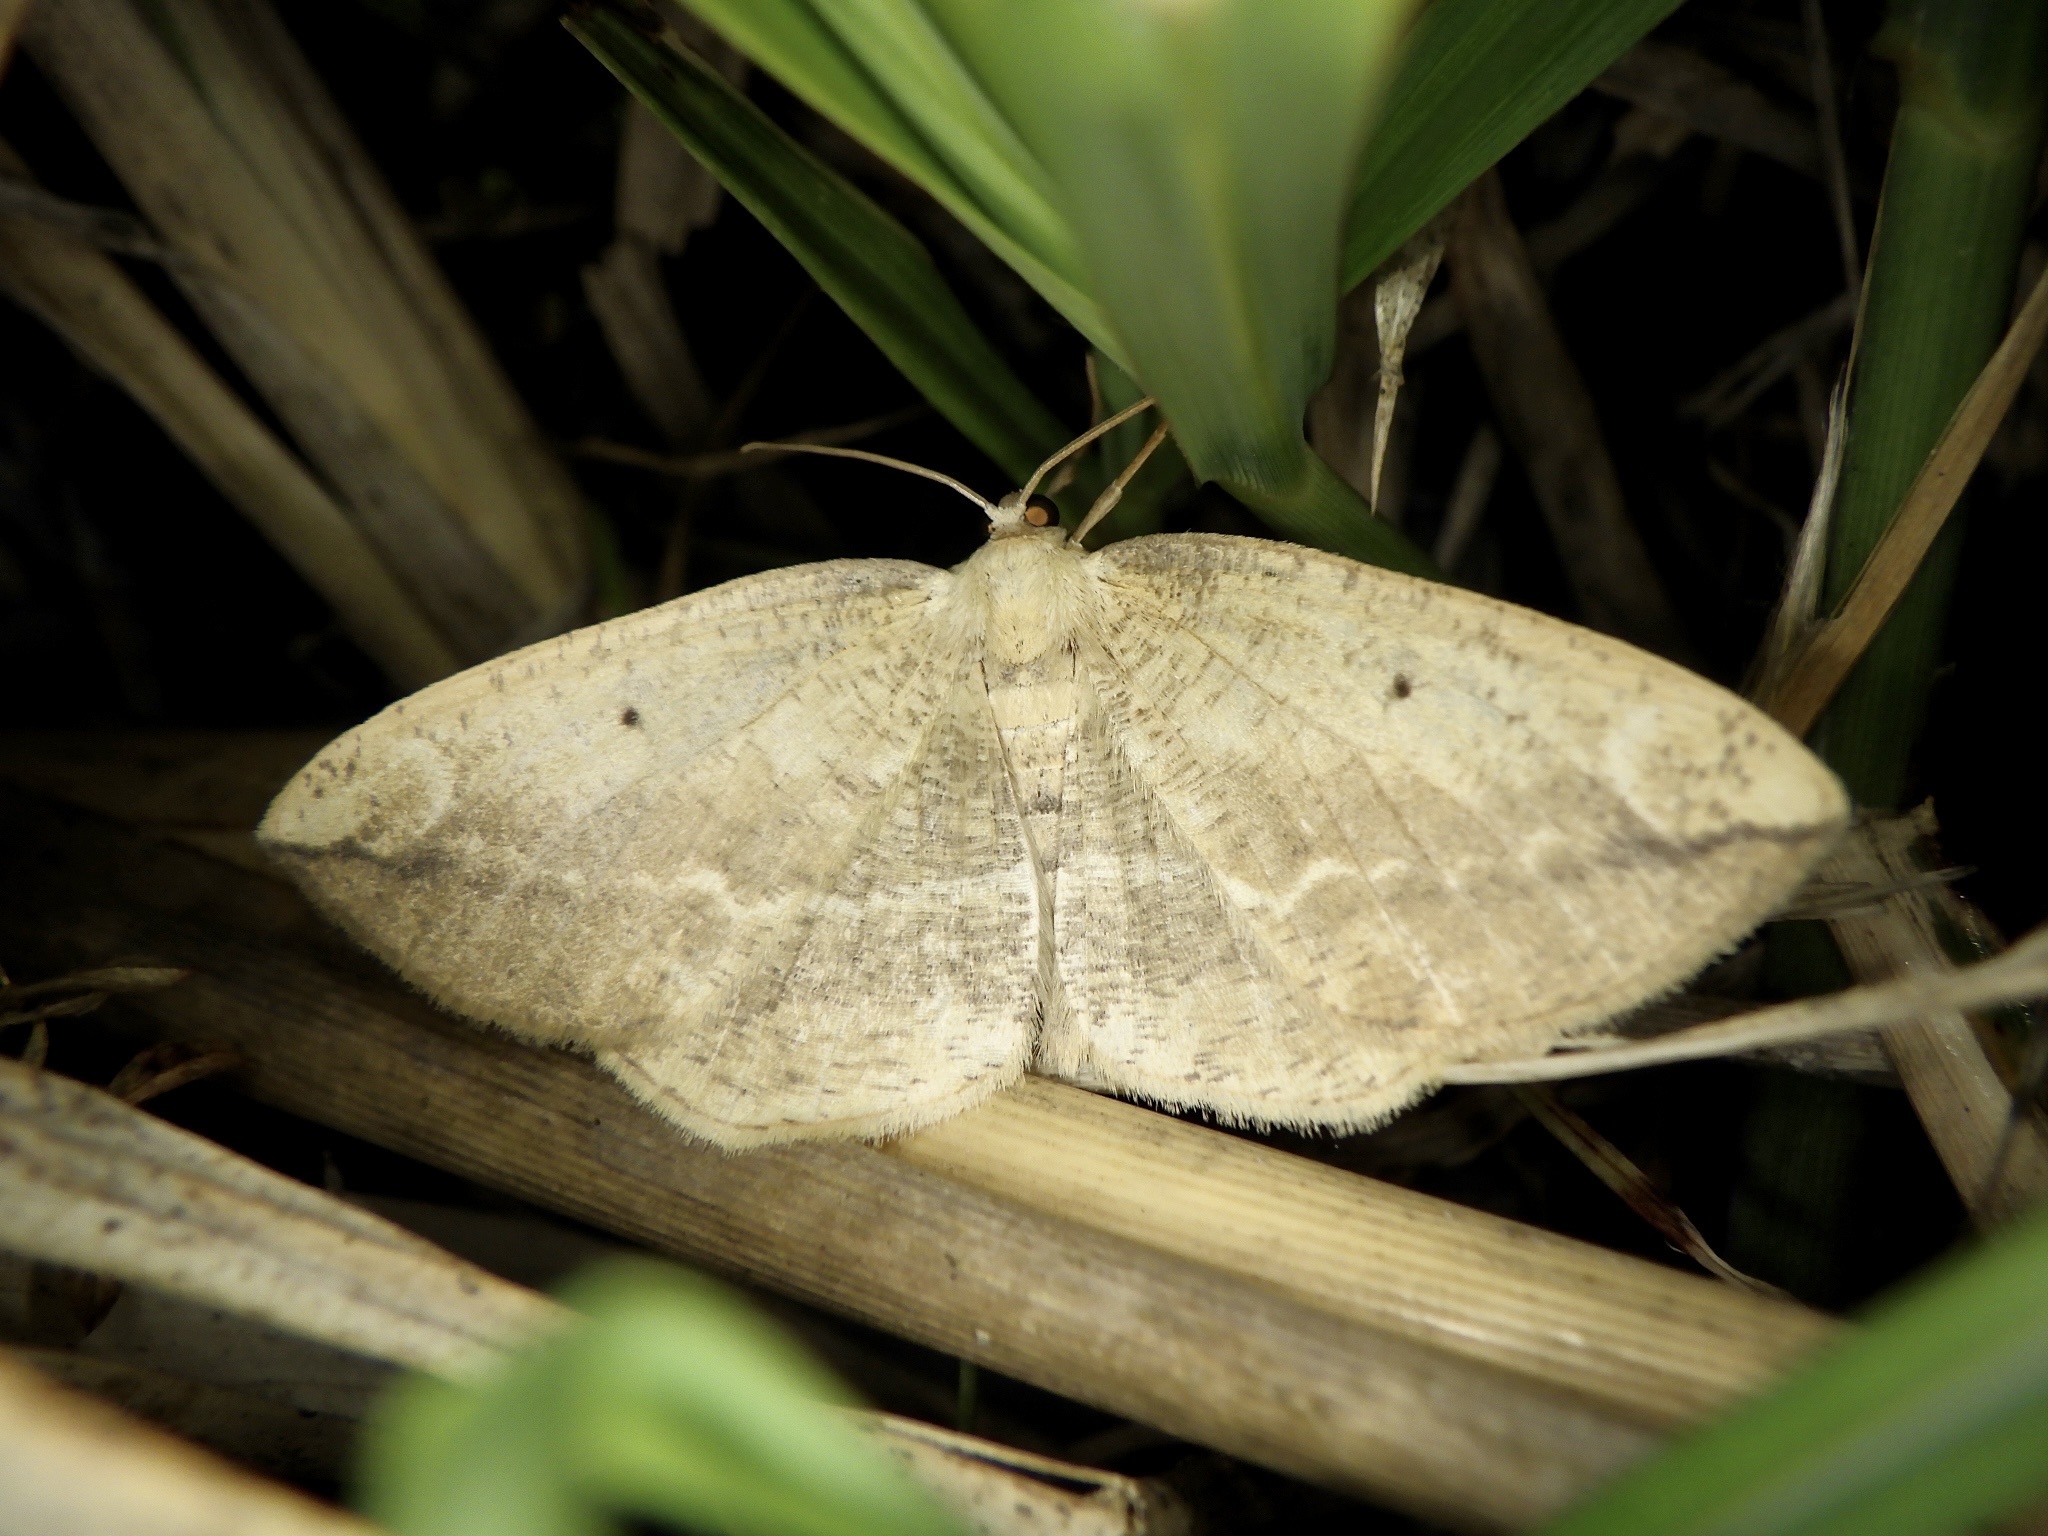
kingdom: Animalia
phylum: Arthropoda
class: Insecta
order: Lepidoptera
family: Geometridae
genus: Platycerota
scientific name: Platycerota incertaria
